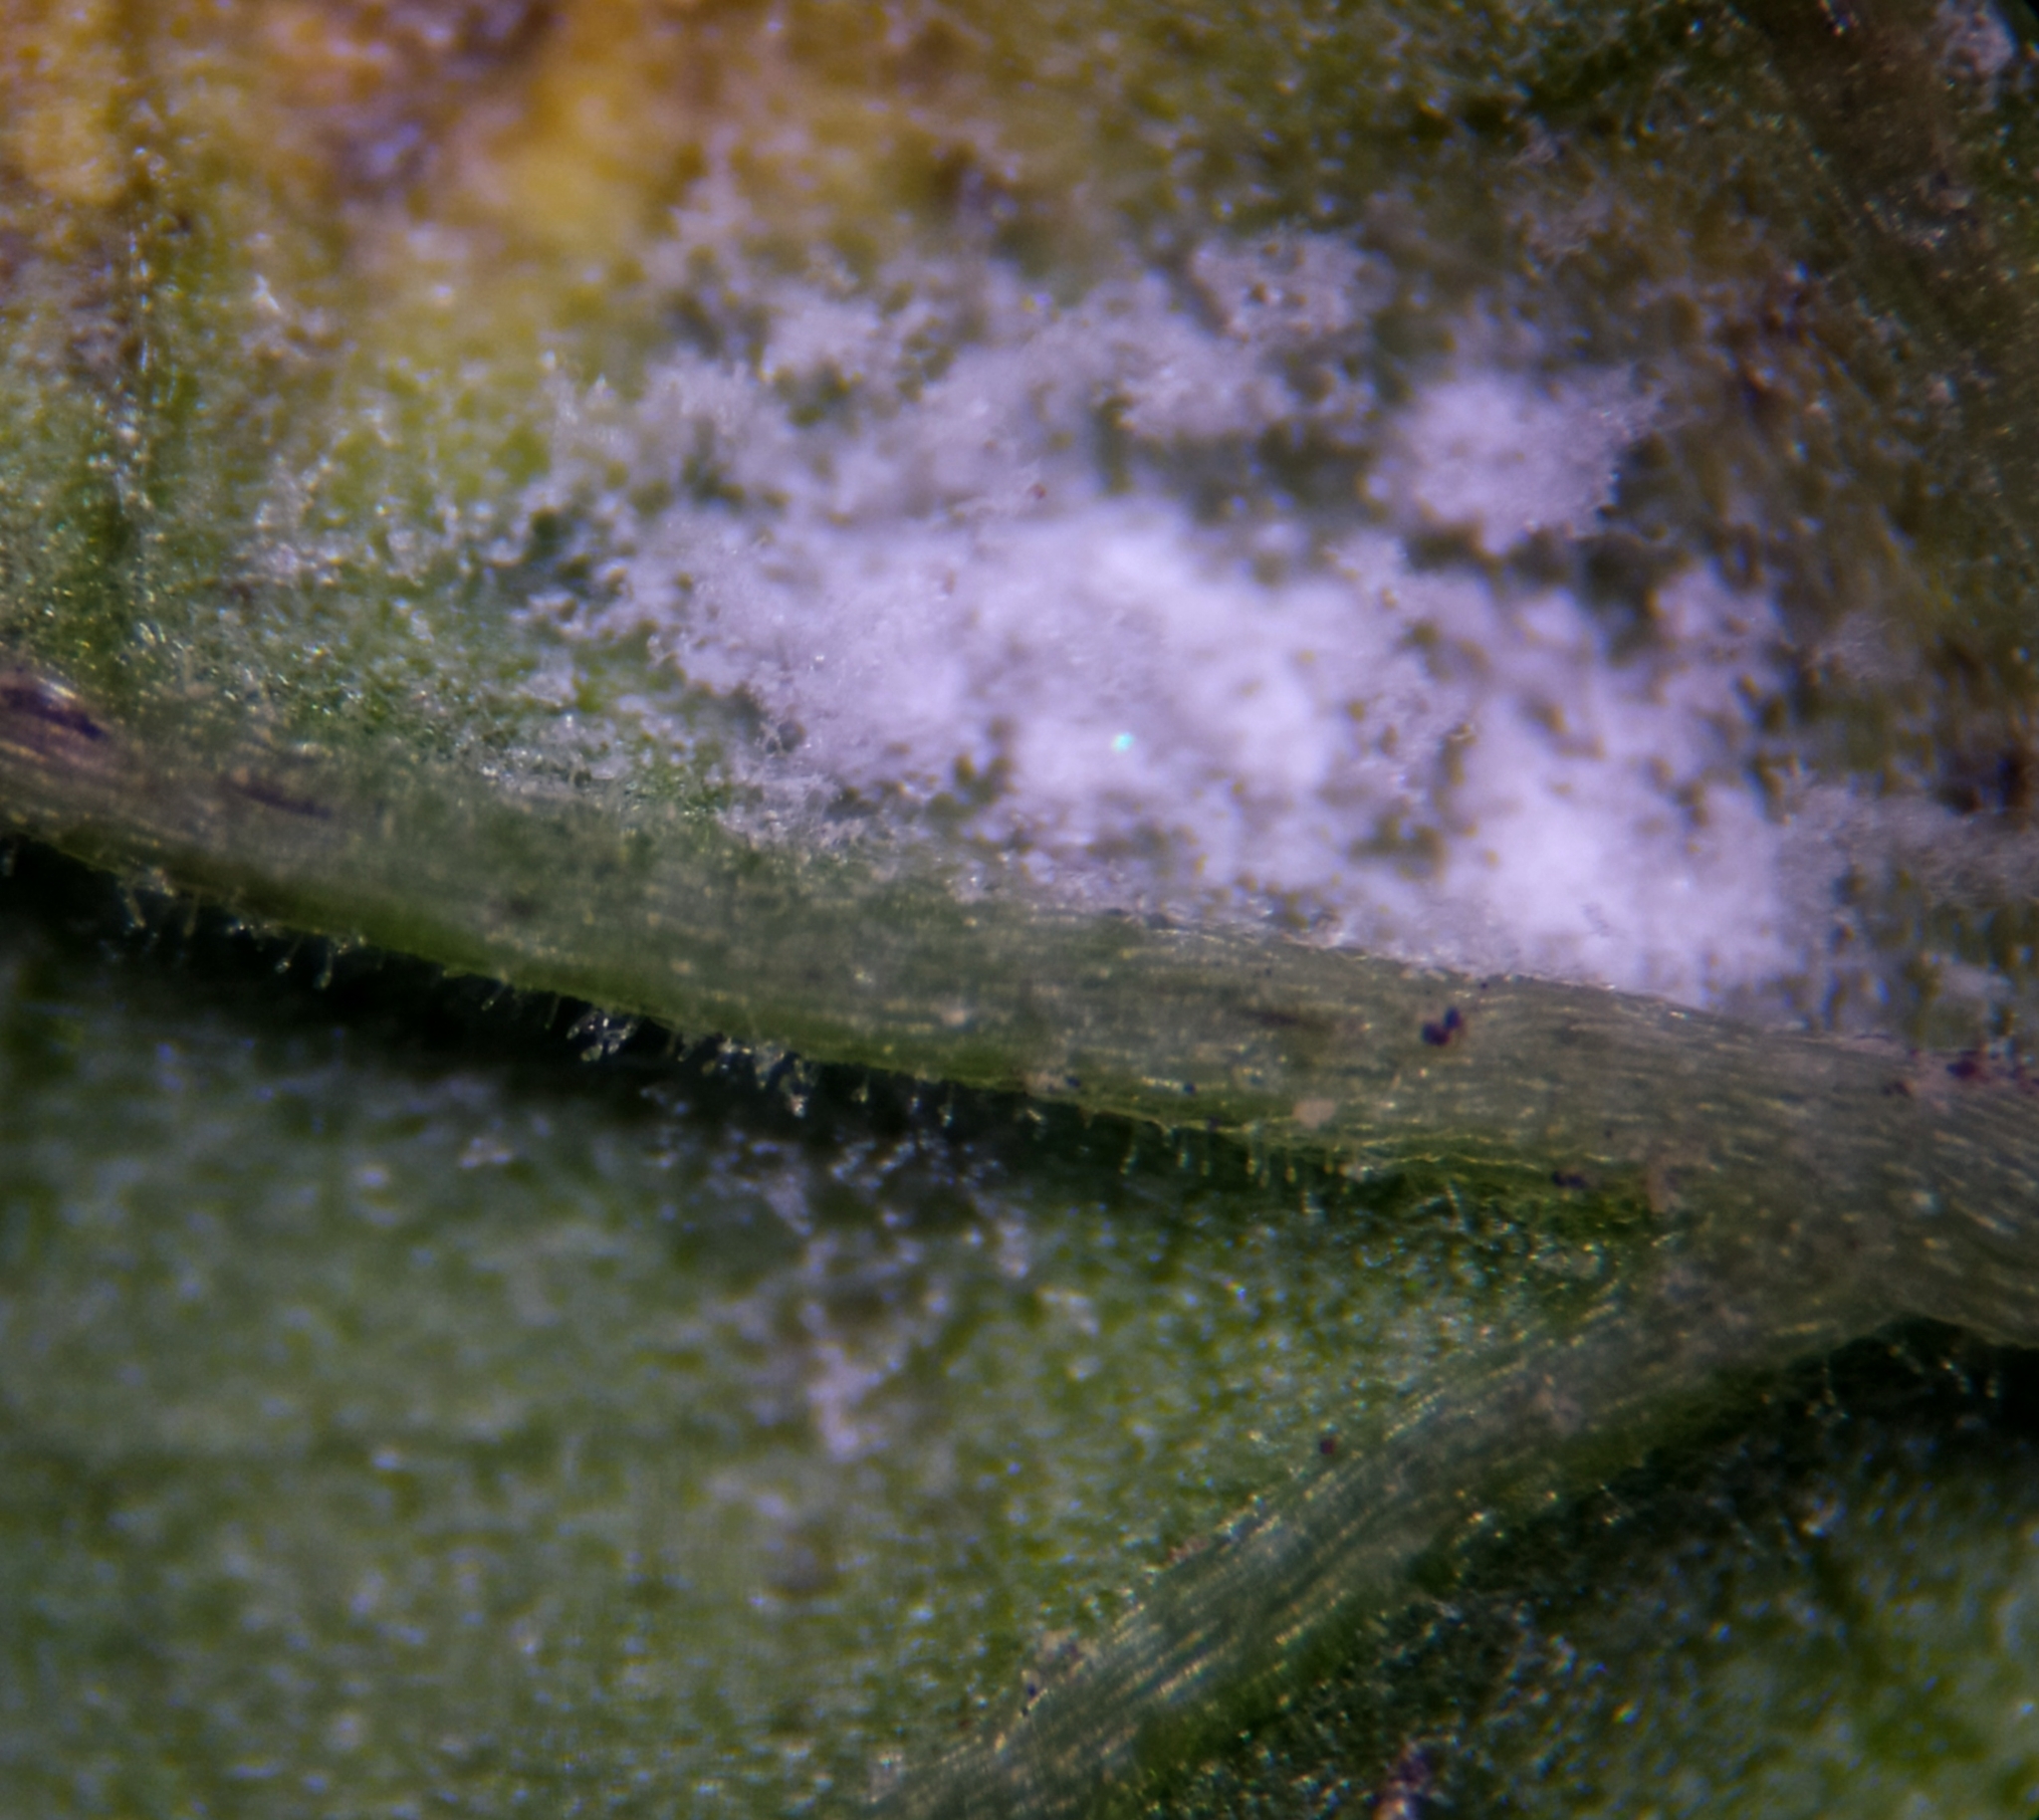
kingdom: Fungi
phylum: Ascomycota
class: Leotiomycetes
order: Helotiales
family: Erysiphaceae
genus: Erysiphe
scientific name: Erysiphe cruciferarum
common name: Brassica powdery mildew
